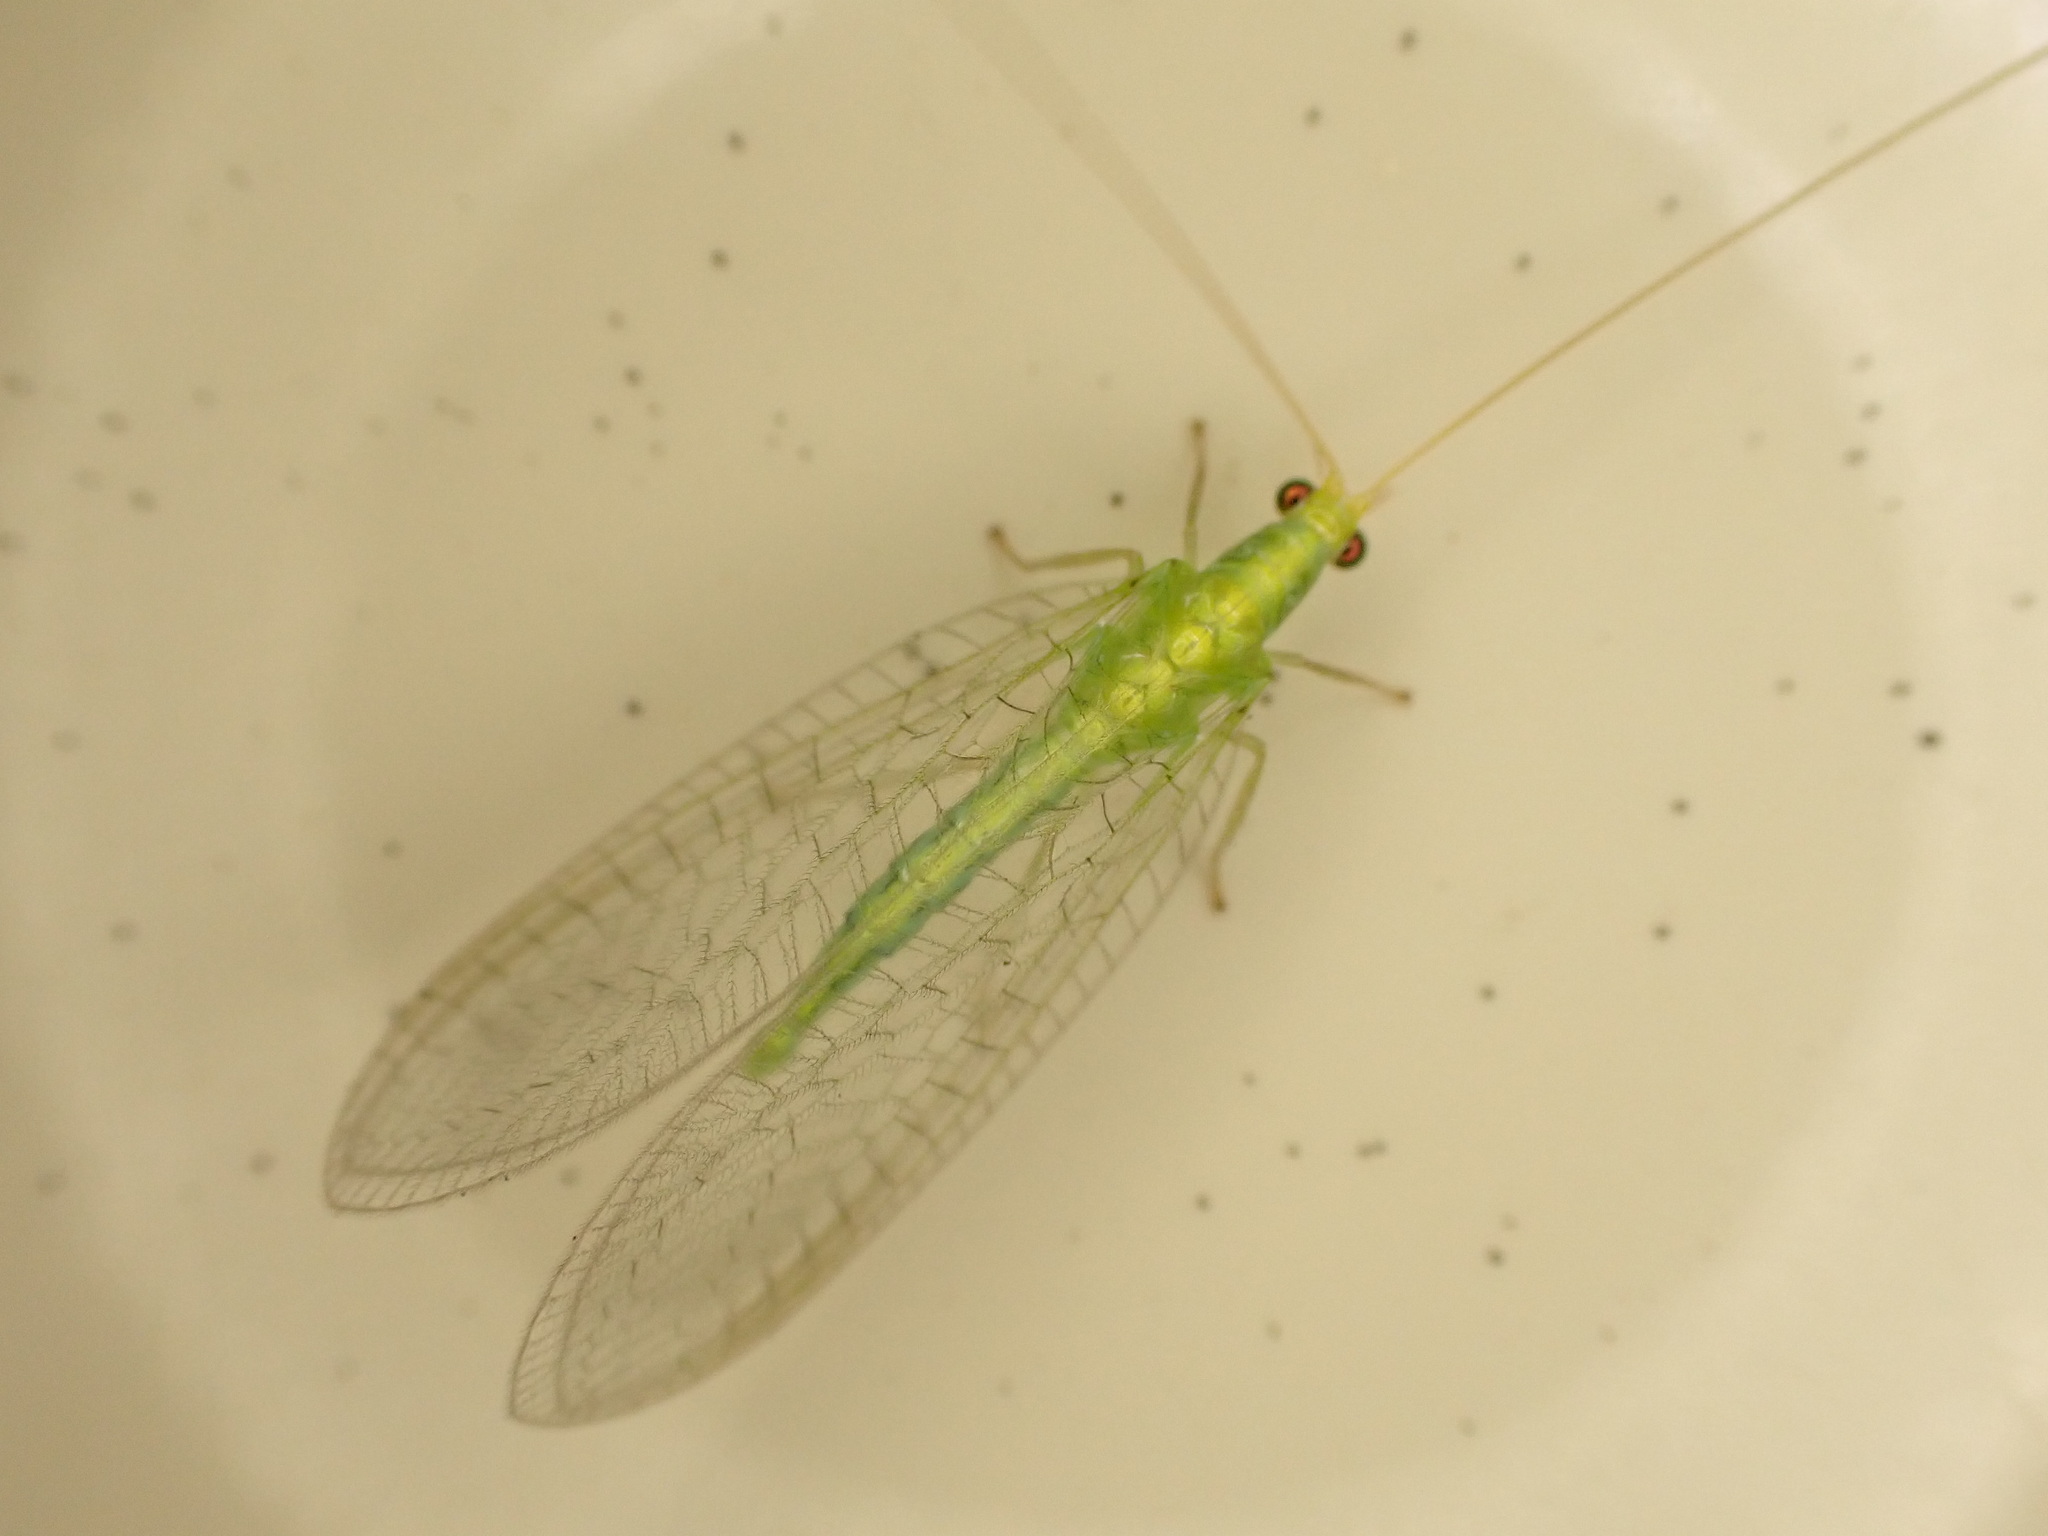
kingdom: Animalia
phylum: Arthropoda
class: Insecta
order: Neuroptera
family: Chrysopidae
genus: Mallada
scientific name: Mallada basalis
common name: Green lacewing
